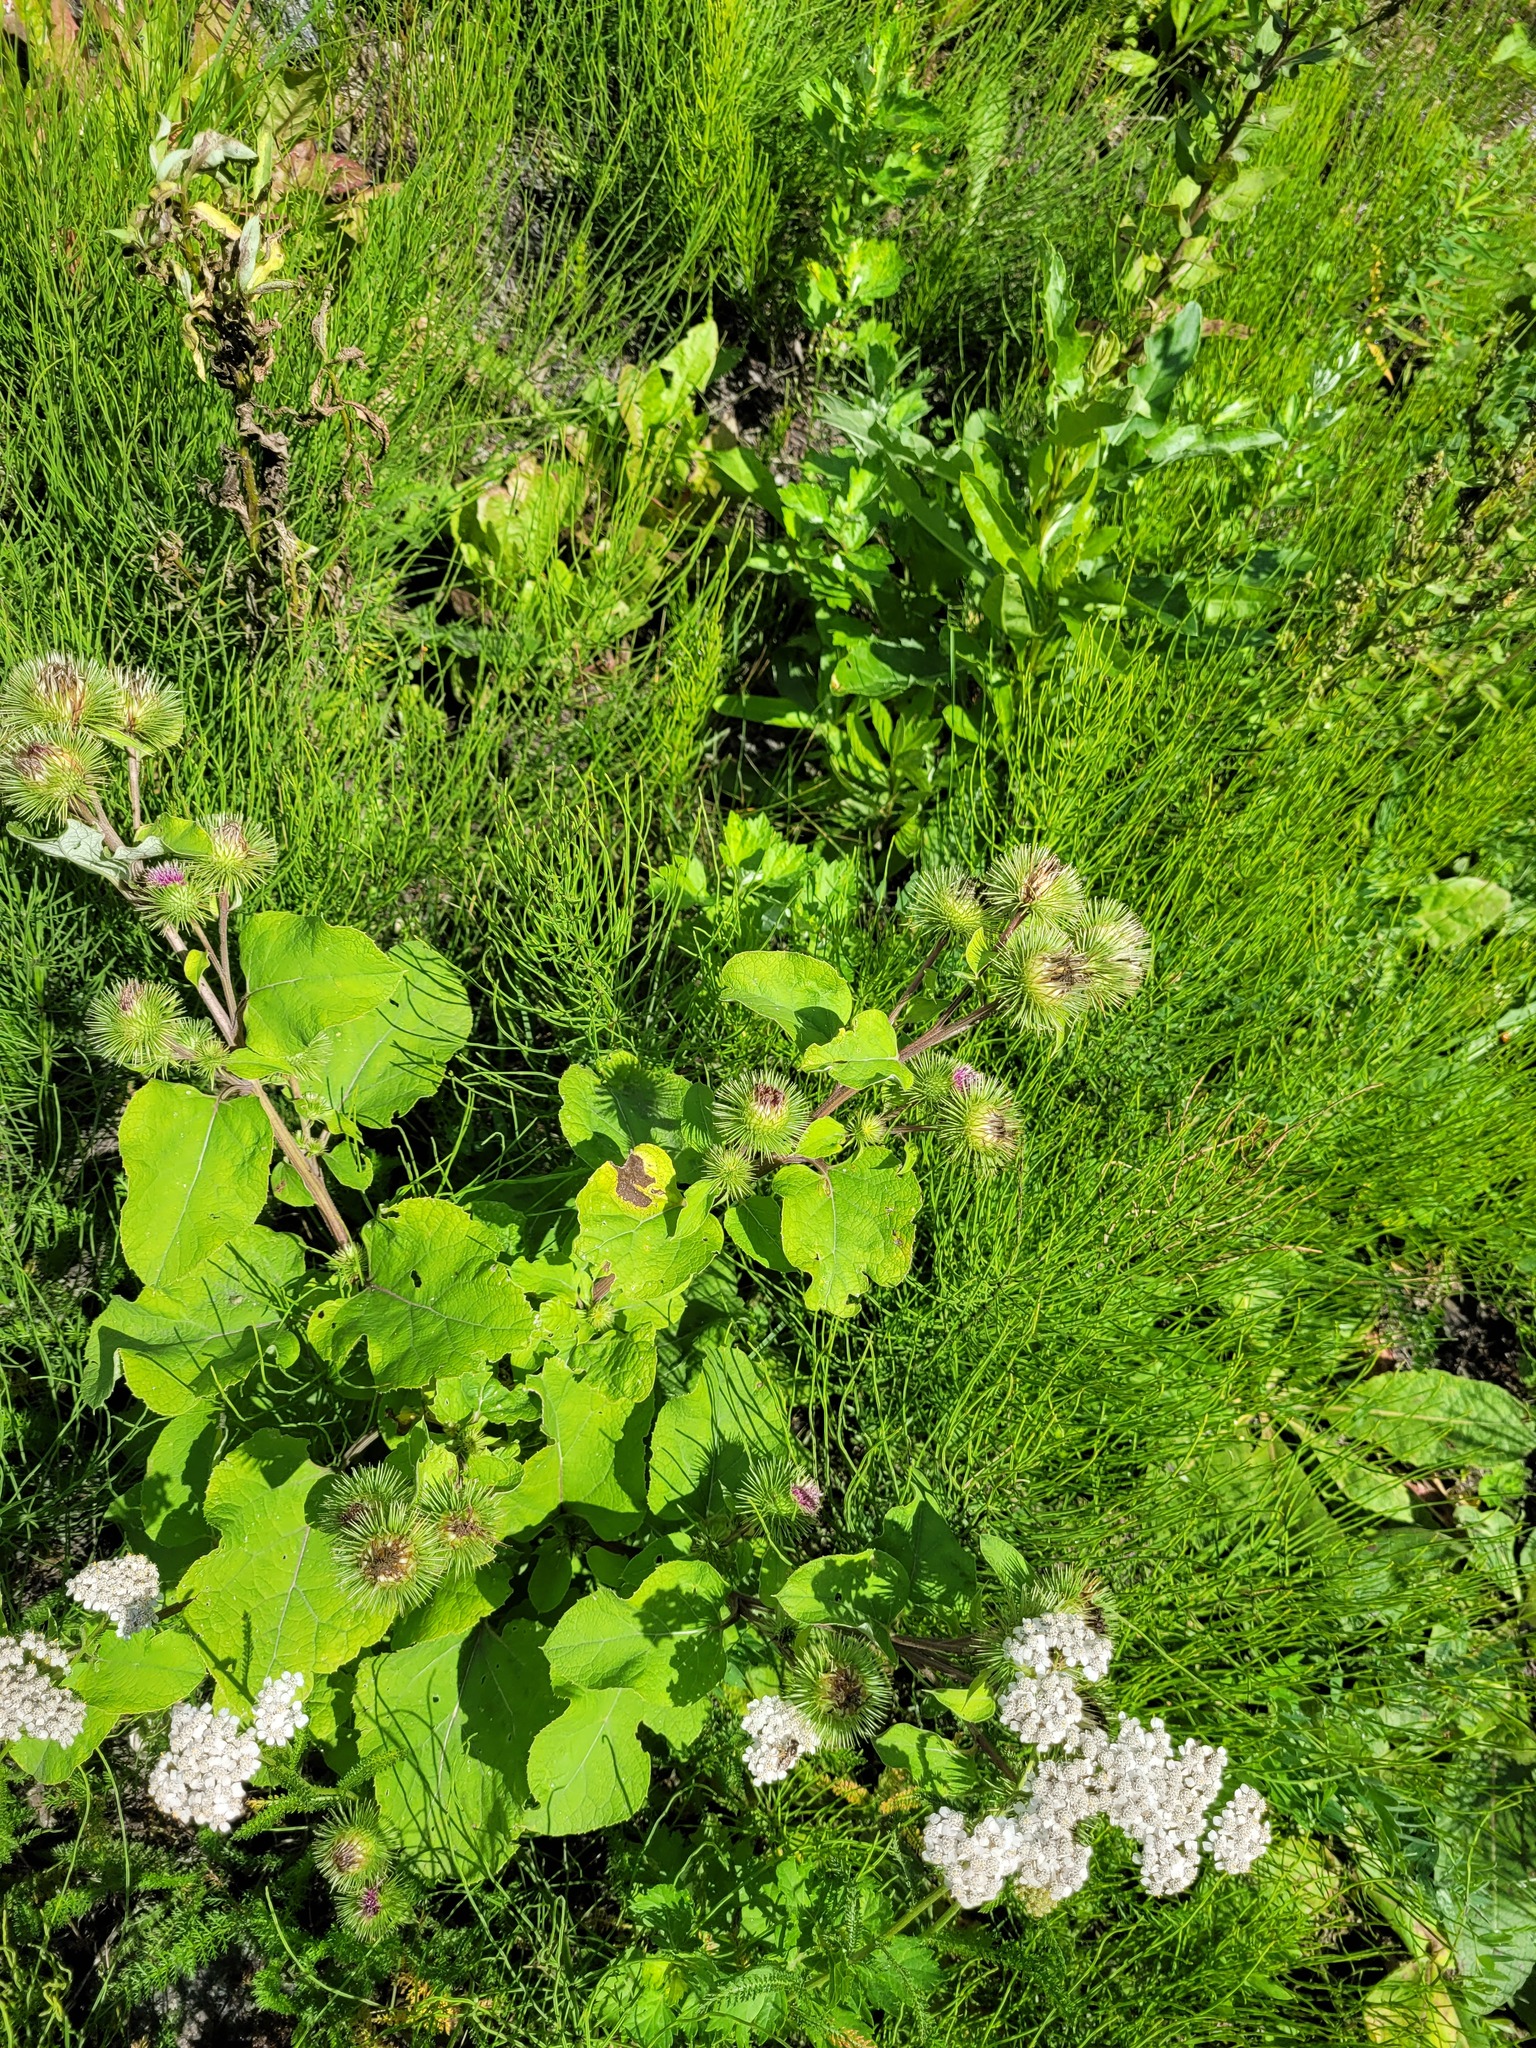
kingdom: Plantae
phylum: Tracheophyta
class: Magnoliopsida
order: Asterales
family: Asteraceae
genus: Arctium
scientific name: Arctium lappa
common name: Greater burdock
